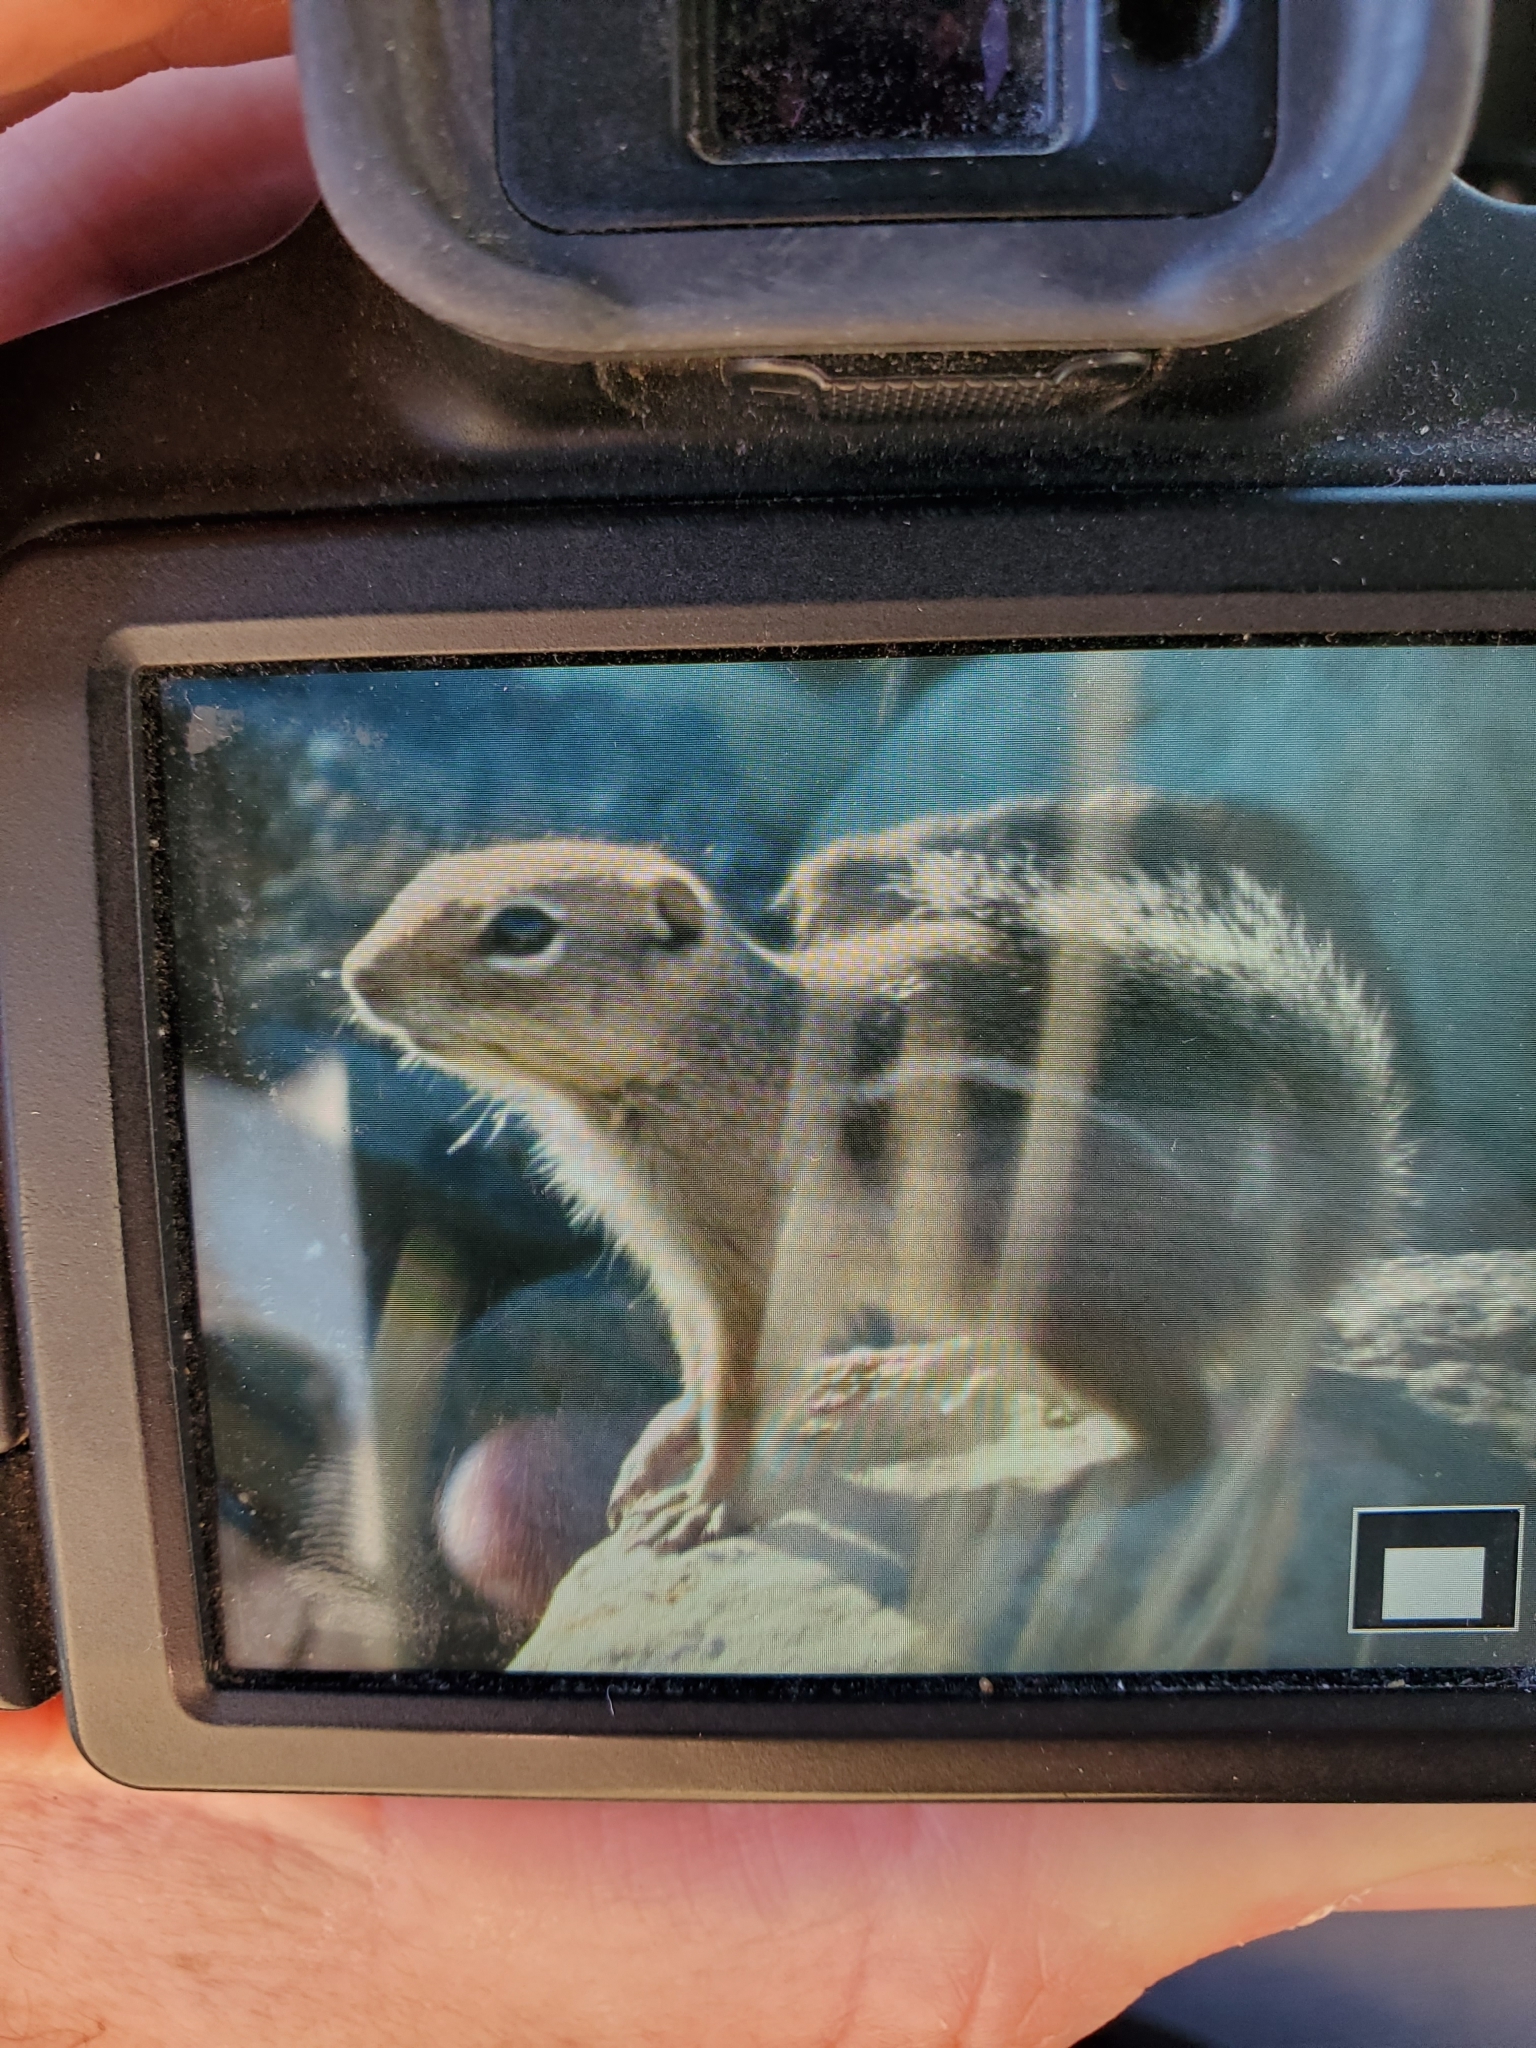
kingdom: Animalia
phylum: Chordata
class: Mammalia
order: Rodentia
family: Sciuridae
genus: Ammospermophilus
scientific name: Ammospermophilus harrisii
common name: Harris's antelope squirrel
